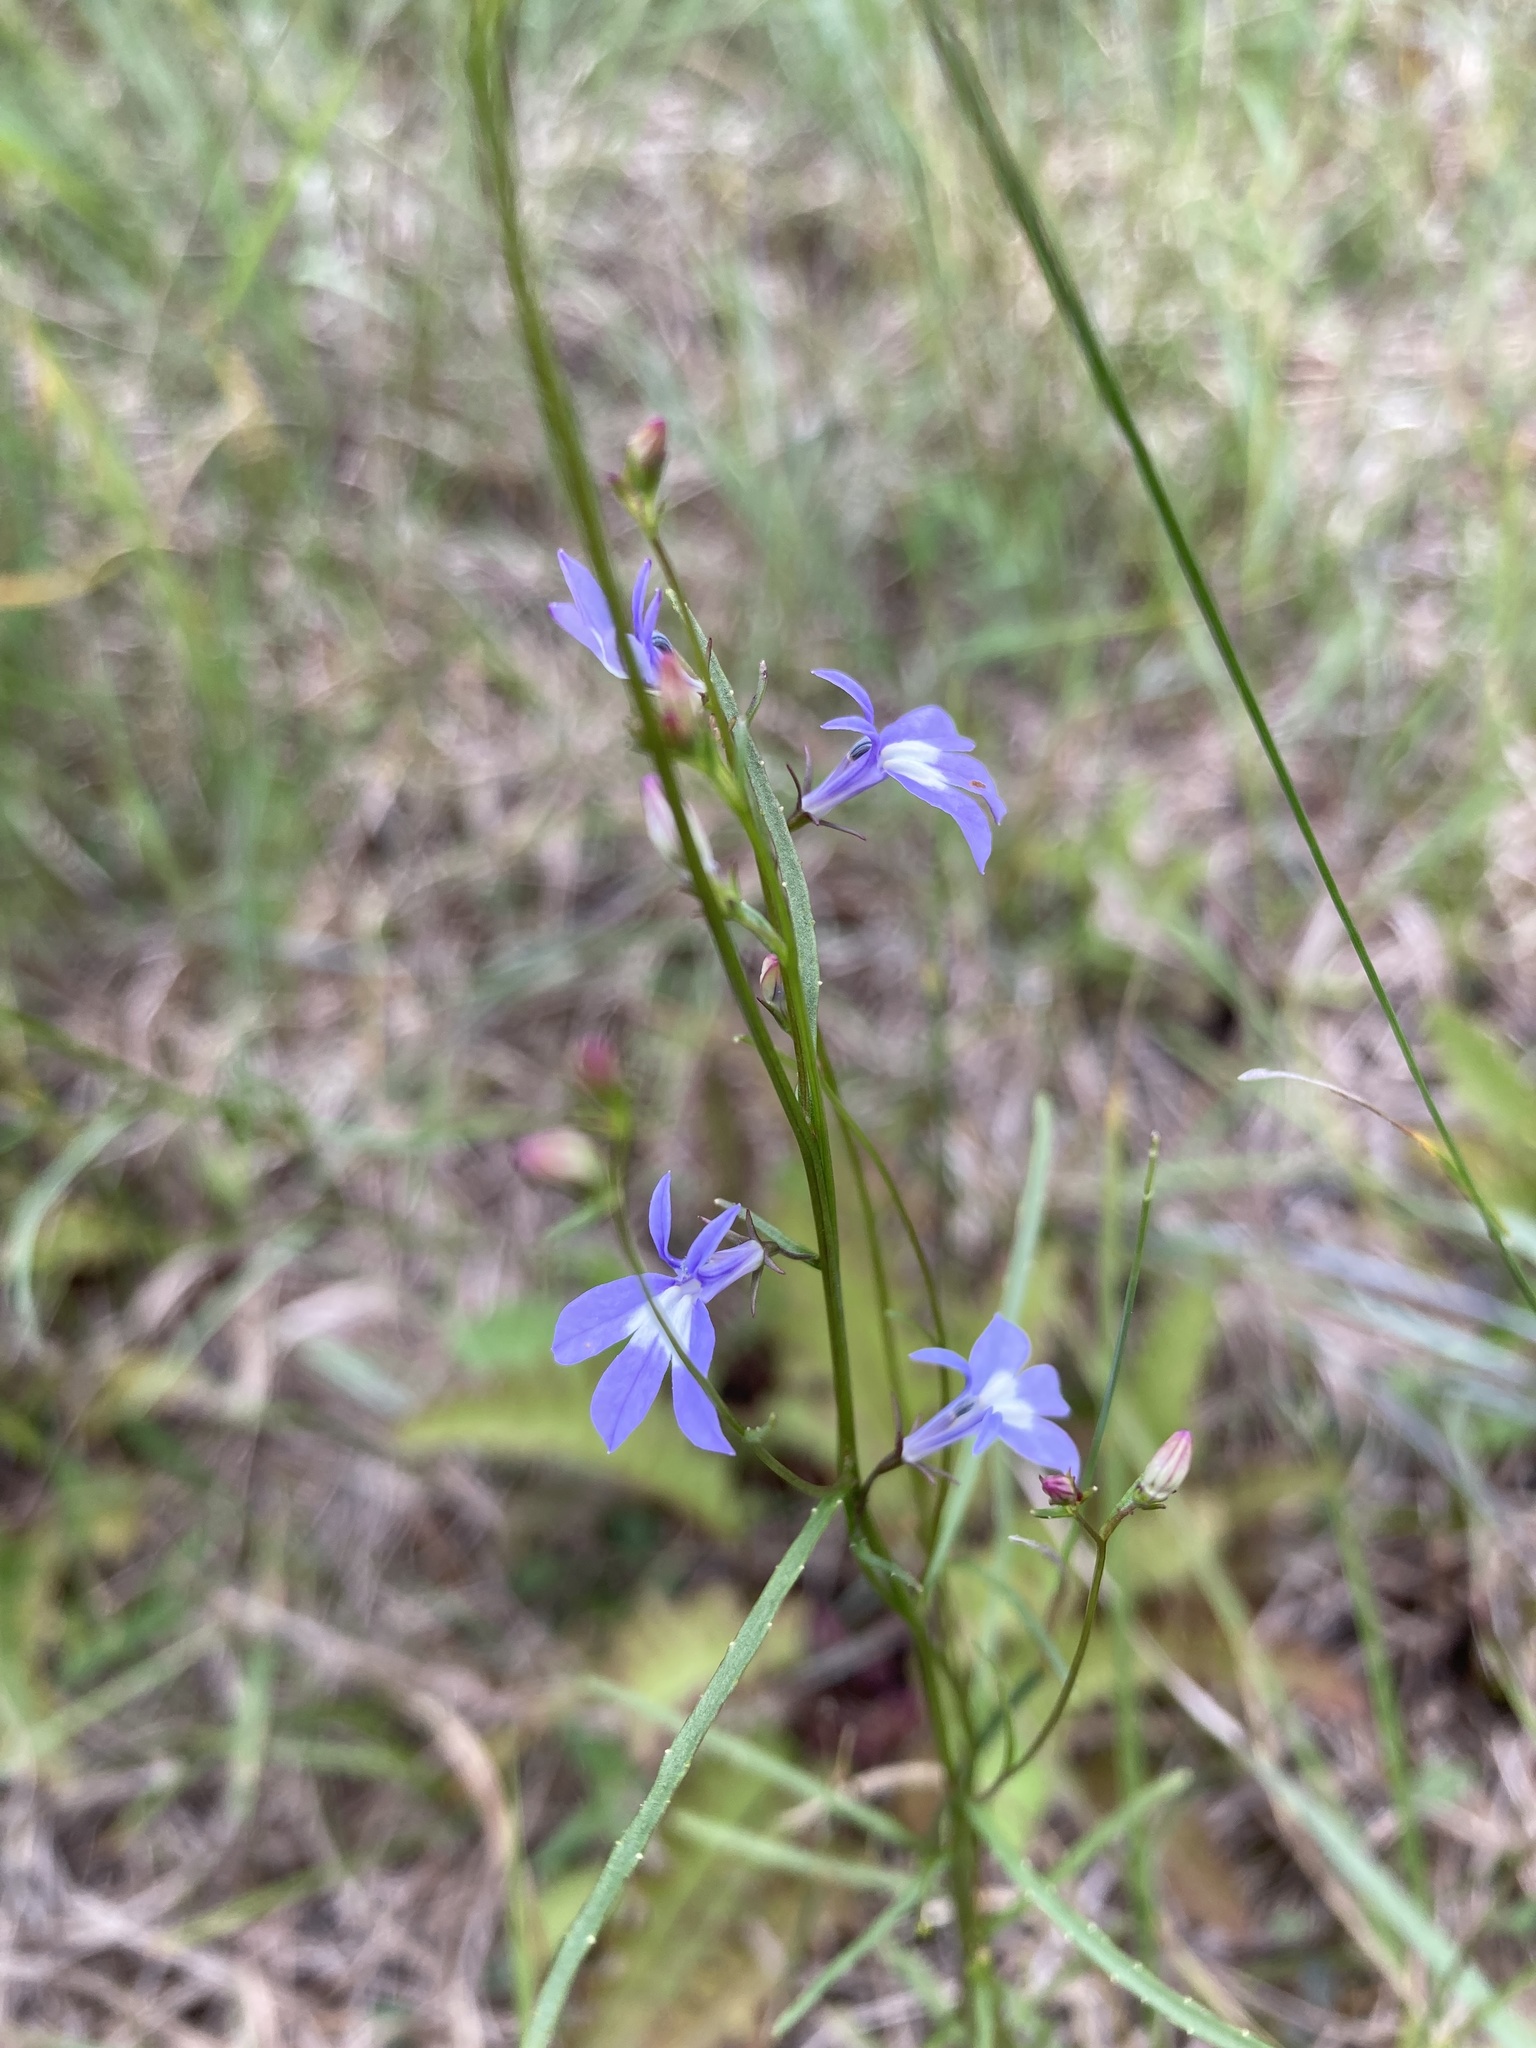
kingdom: Plantae
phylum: Tracheophyta
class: Magnoliopsida
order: Asterales
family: Campanulaceae
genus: Lobelia
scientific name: Lobelia kalmii
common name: Kalm's lobelia
